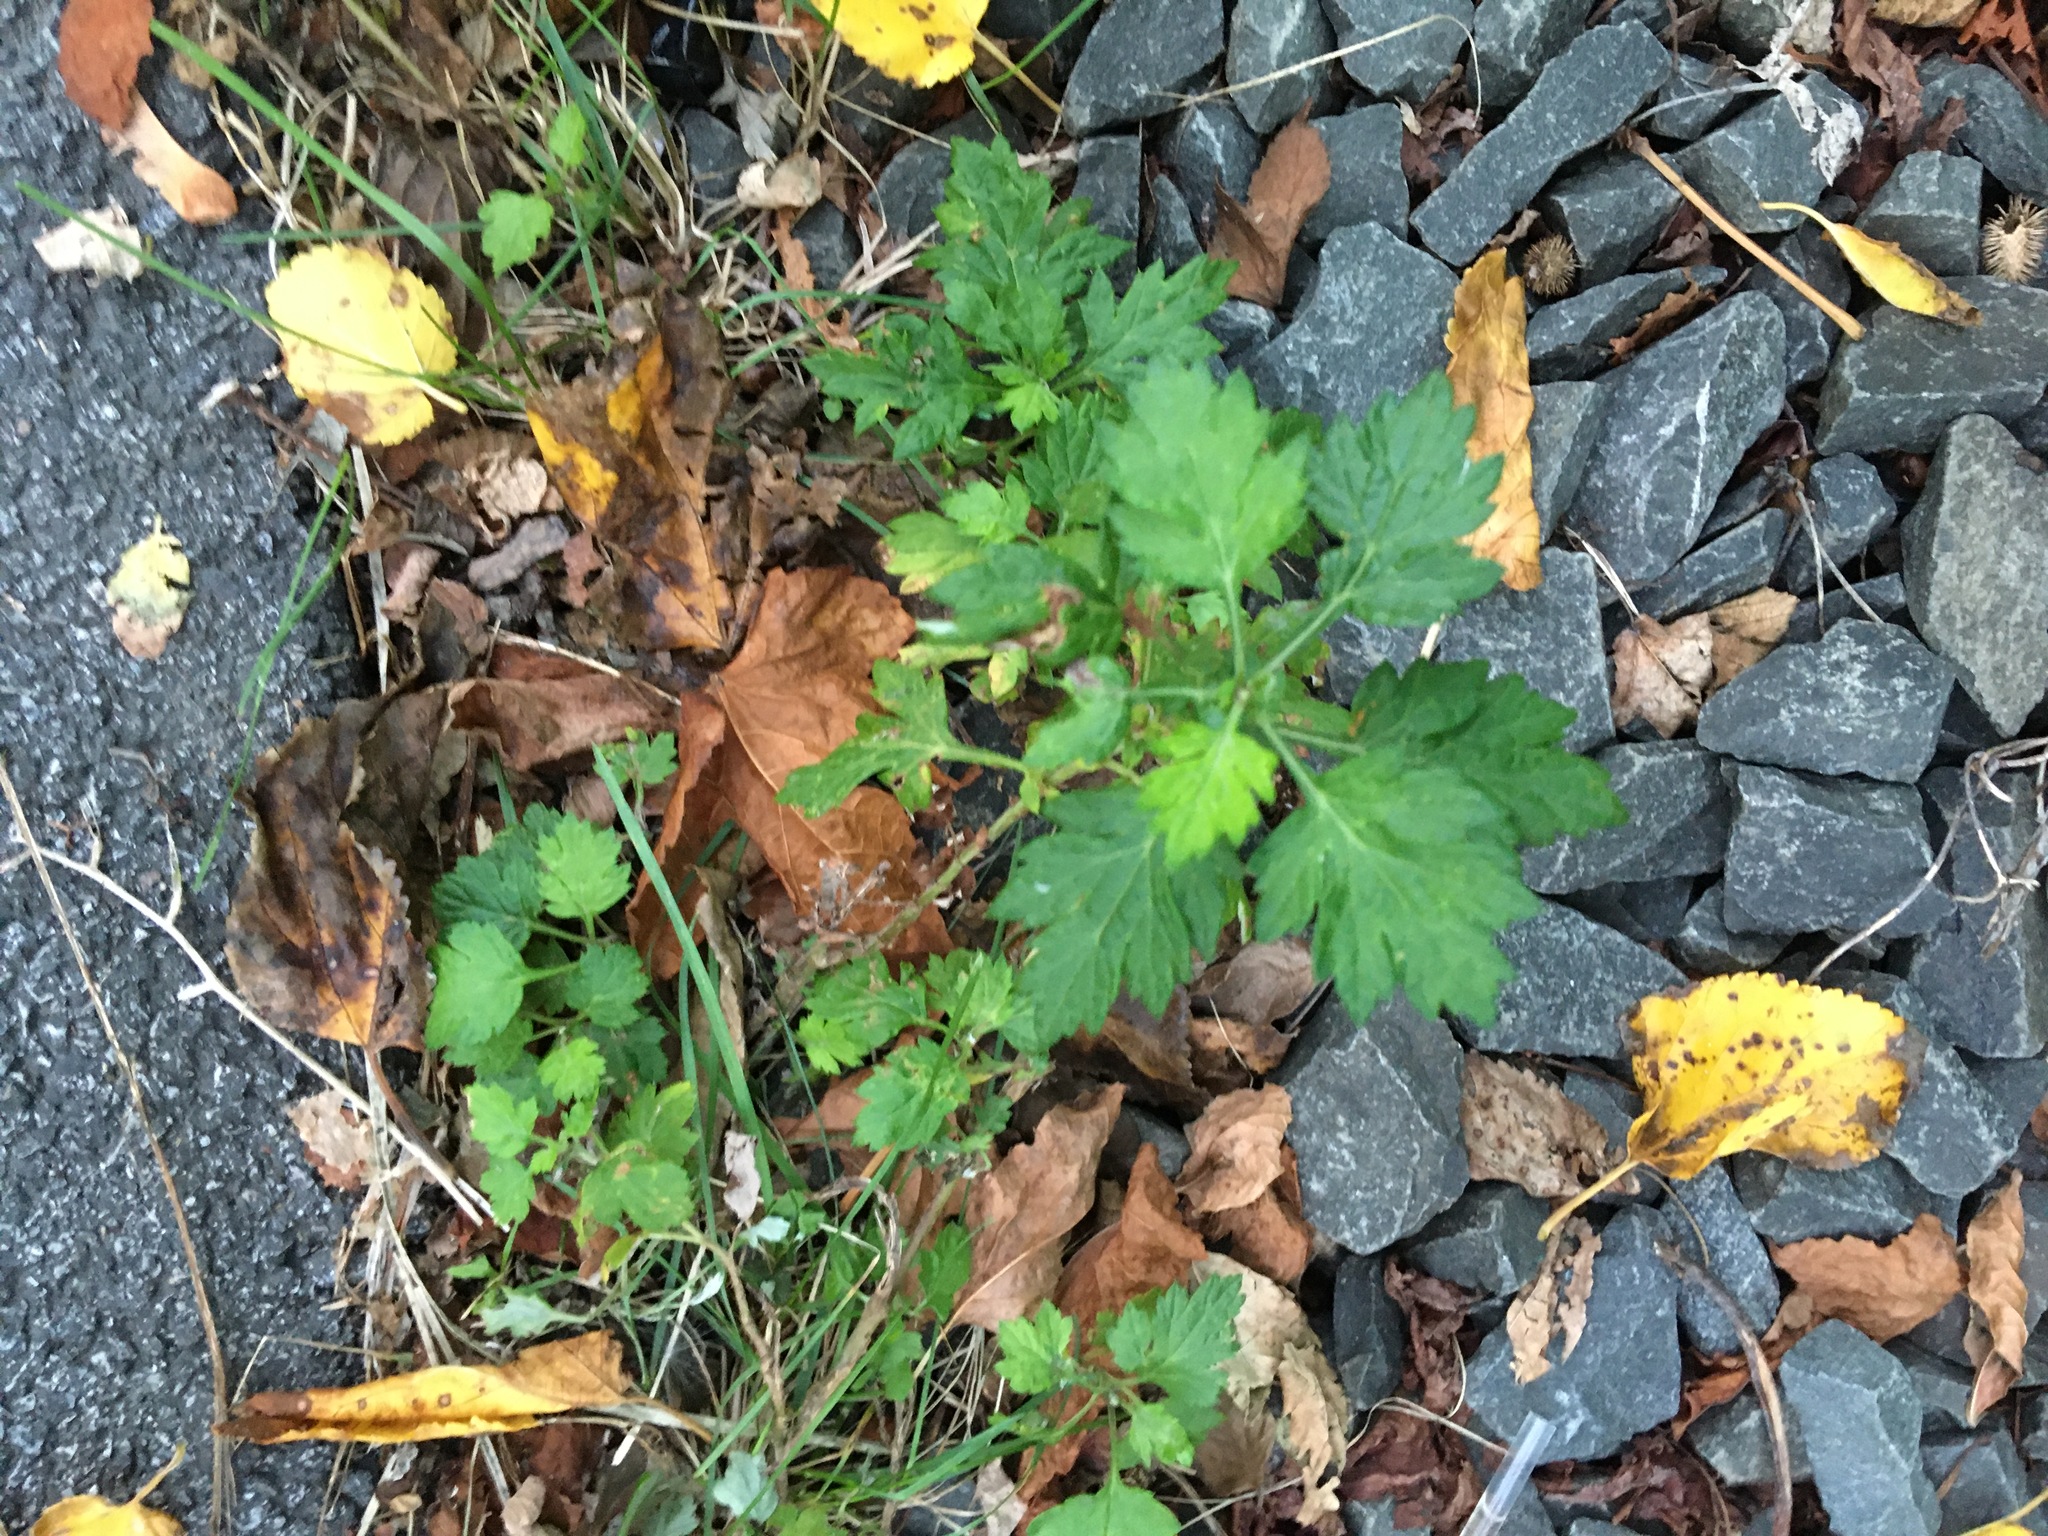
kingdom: Plantae
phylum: Tracheophyta
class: Magnoliopsida
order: Asterales
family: Asteraceae
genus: Artemisia
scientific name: Artemisia vulgaris
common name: Mugwort
